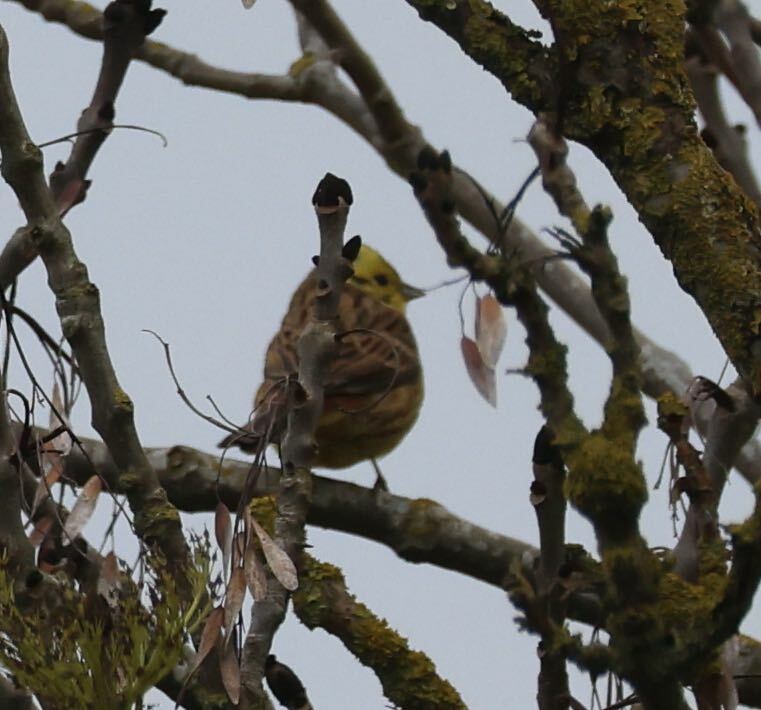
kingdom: Animalia
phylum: Chordata
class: Aves
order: Passeriformes
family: Emberizidae
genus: Emberiza
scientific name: Emberiza citrinella
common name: Yellowhammer
